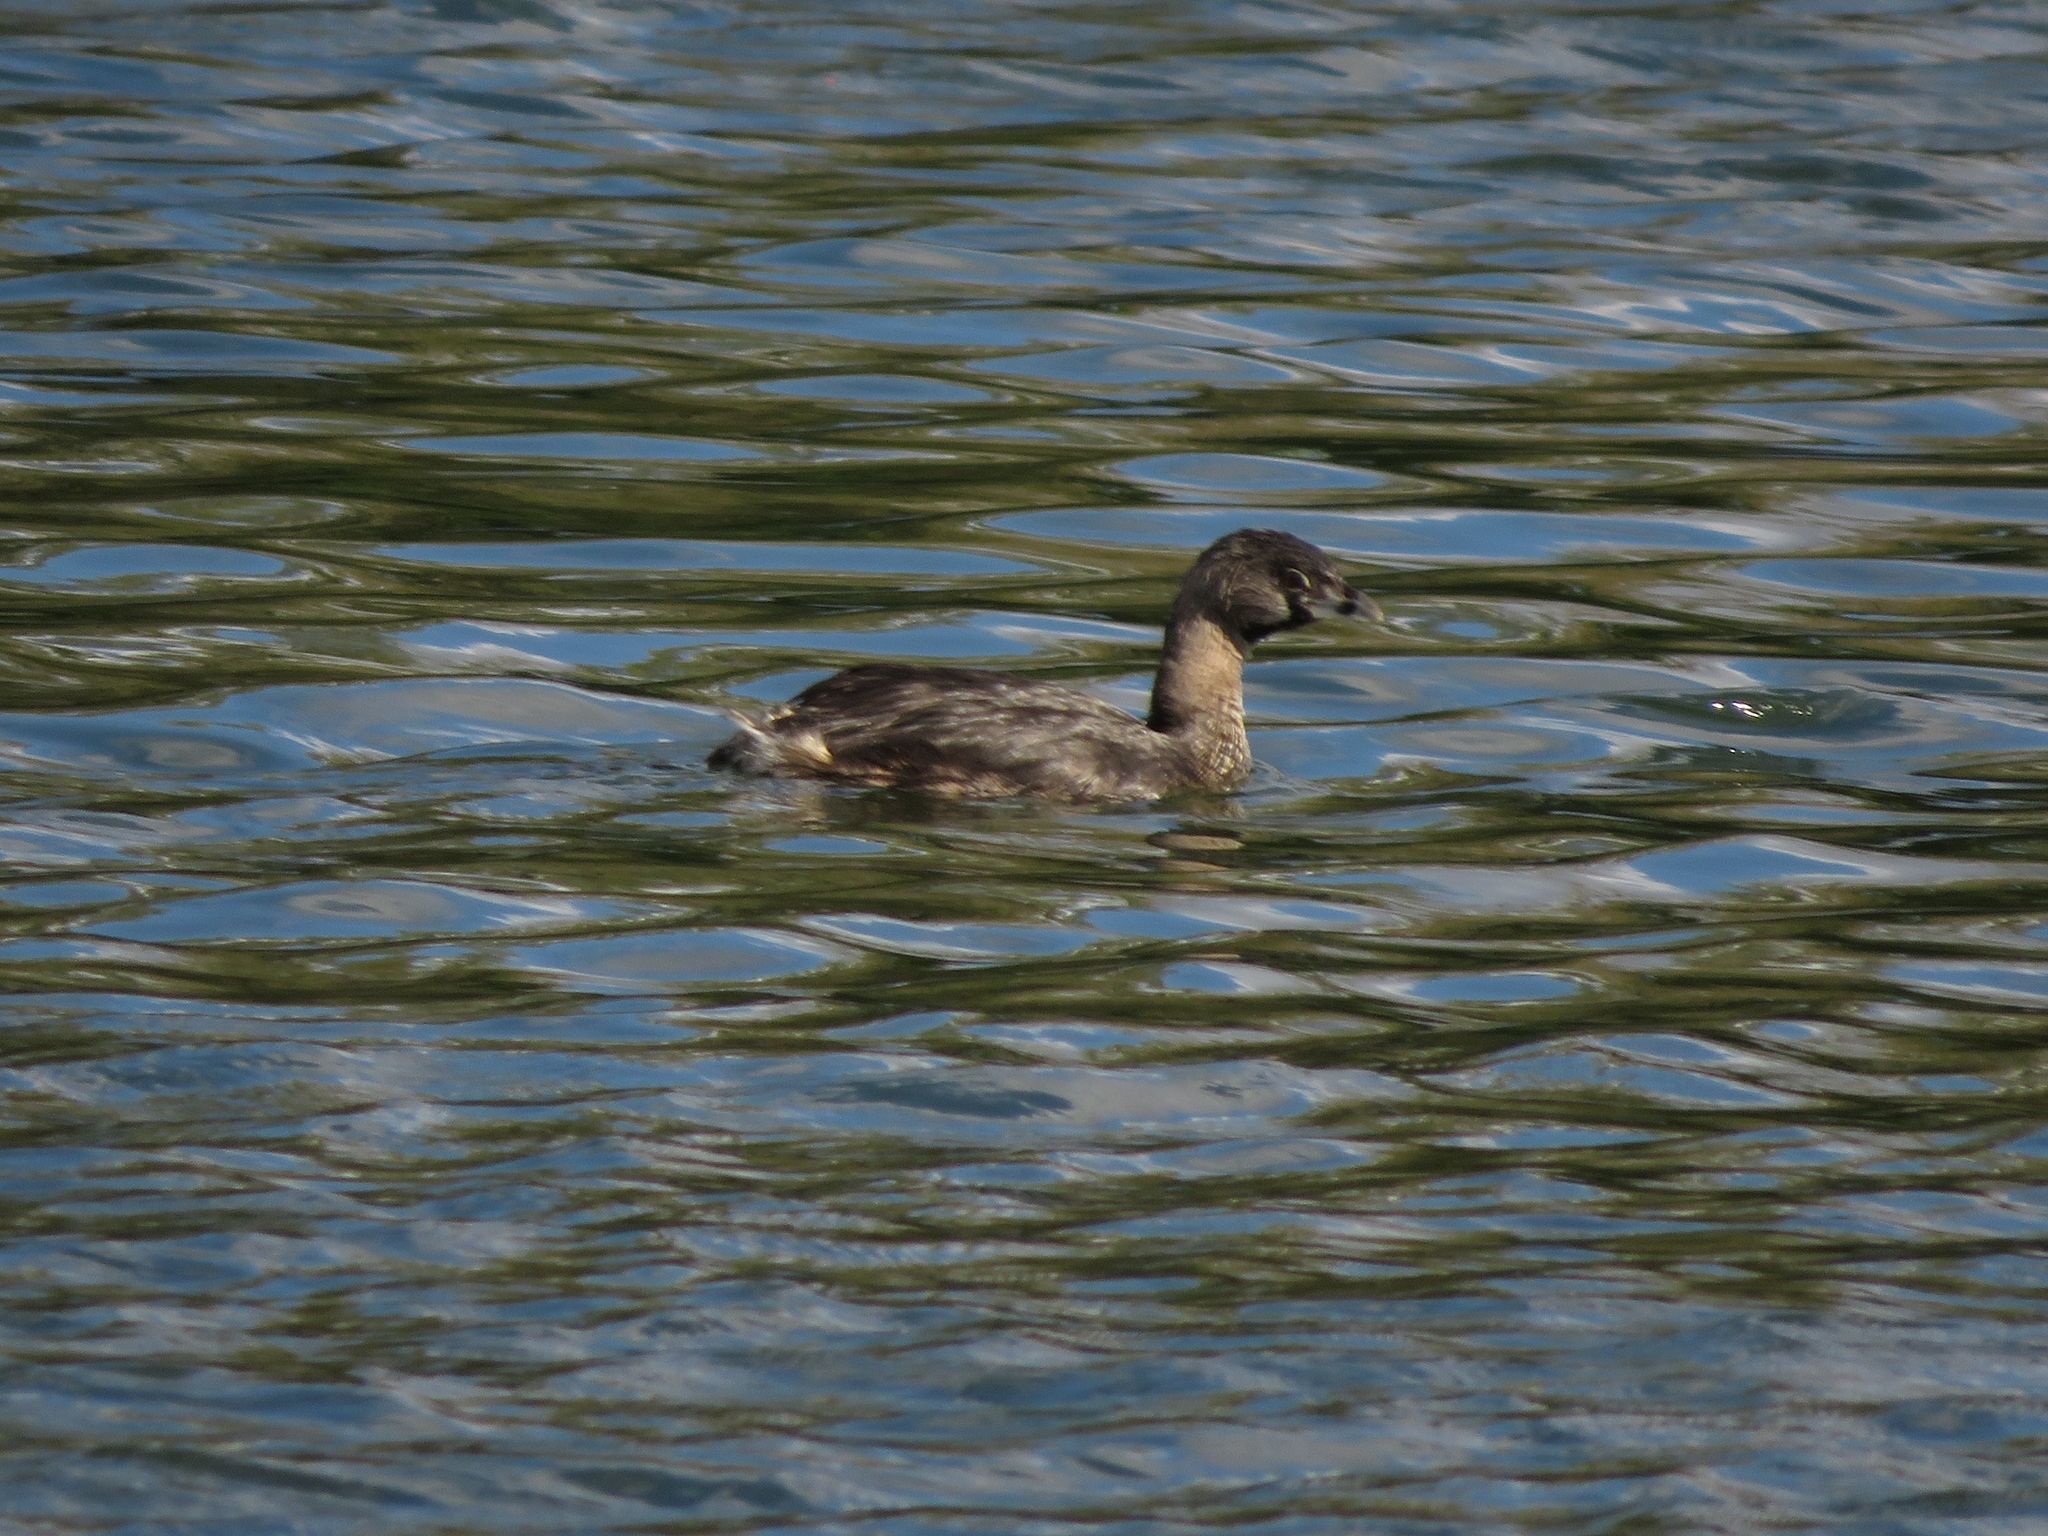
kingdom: Animalia
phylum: Chordata
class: Aves
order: Podicipediformes
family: Podicipedidae
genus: Podilymbus
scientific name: Podilymbus podiceps
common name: Pied-billed grebe
